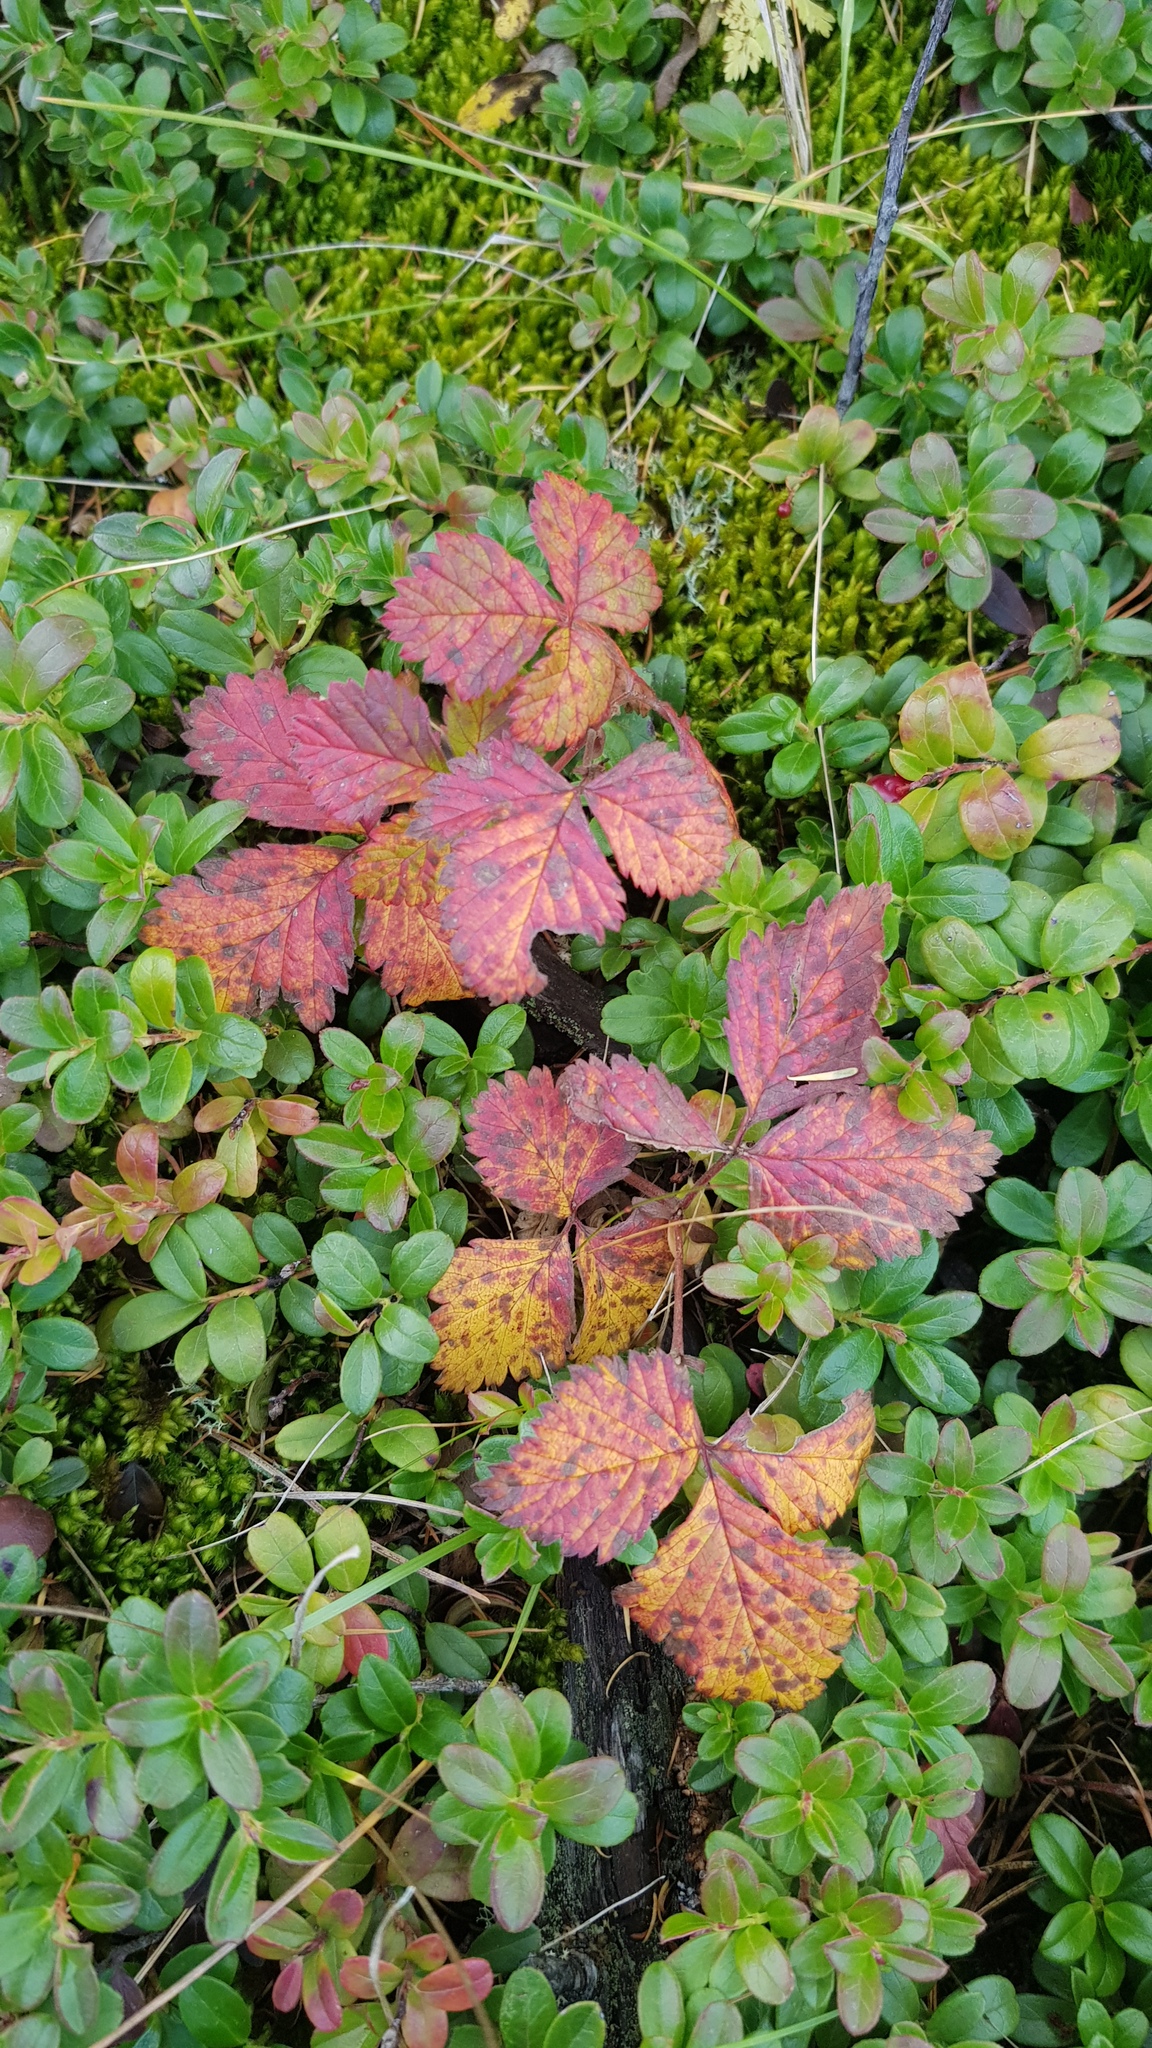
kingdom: Plantae
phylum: Tracheophyta
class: Magnoliopsida
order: Rosales
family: Rosaceae
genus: Rubus
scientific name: Rubus arcticus
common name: Arctic bramble
